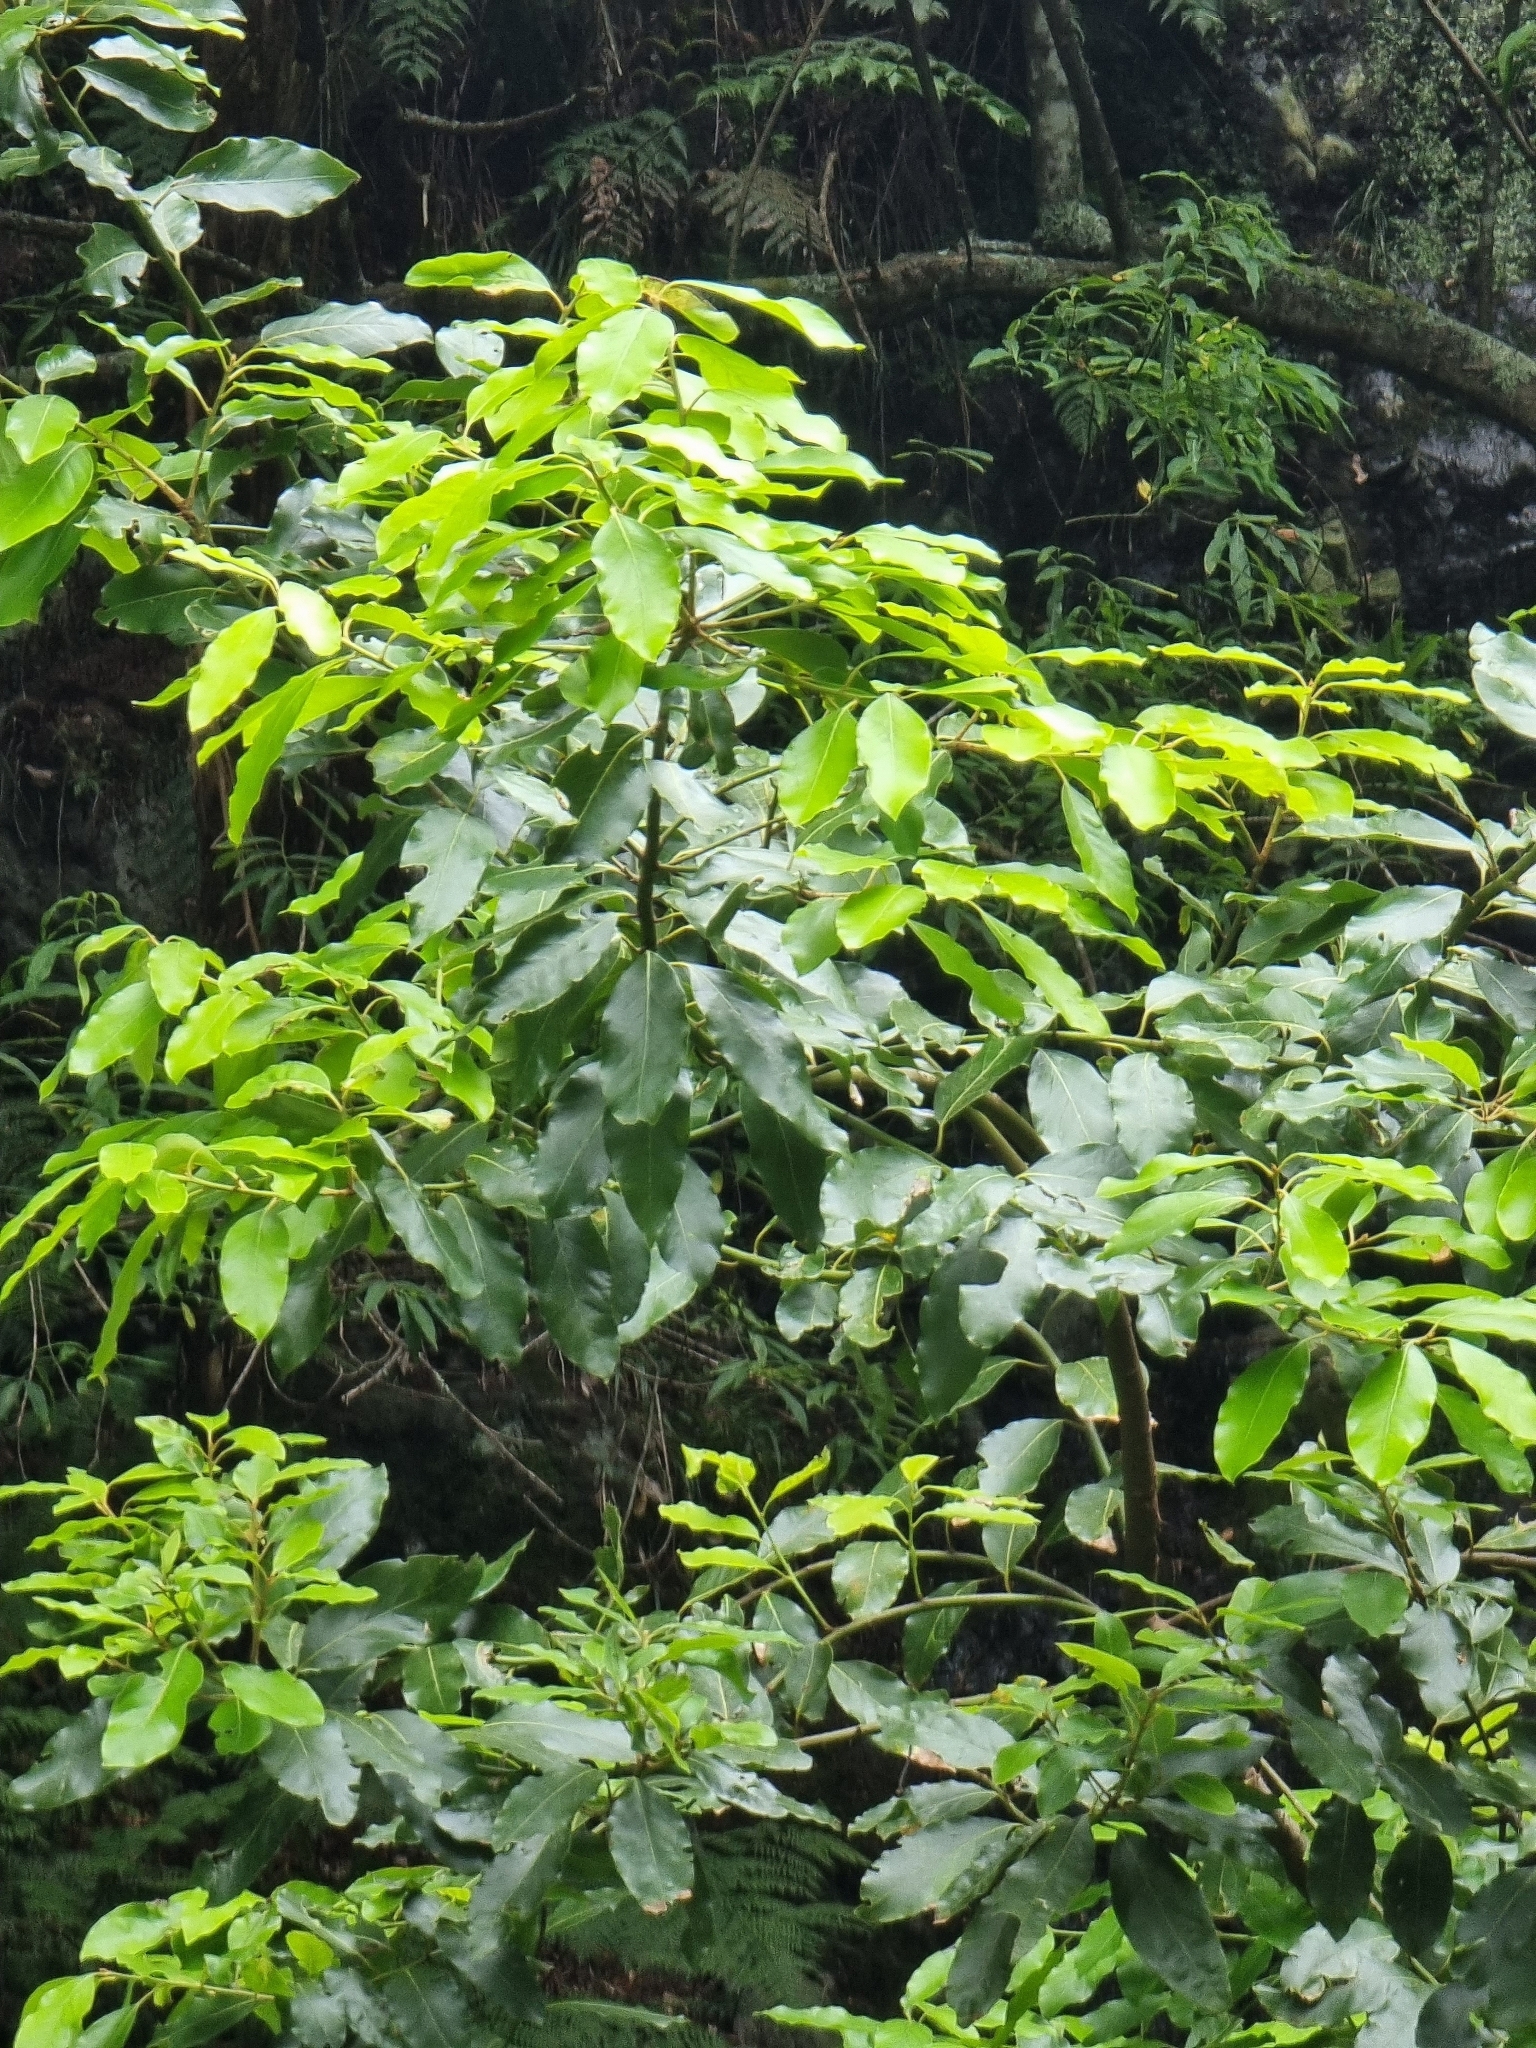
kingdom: Plantae
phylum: Tracheophyta
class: Magnoliopsida
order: Laurales
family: Lauraceae
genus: Laurus
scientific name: Laurus novocanariensis
